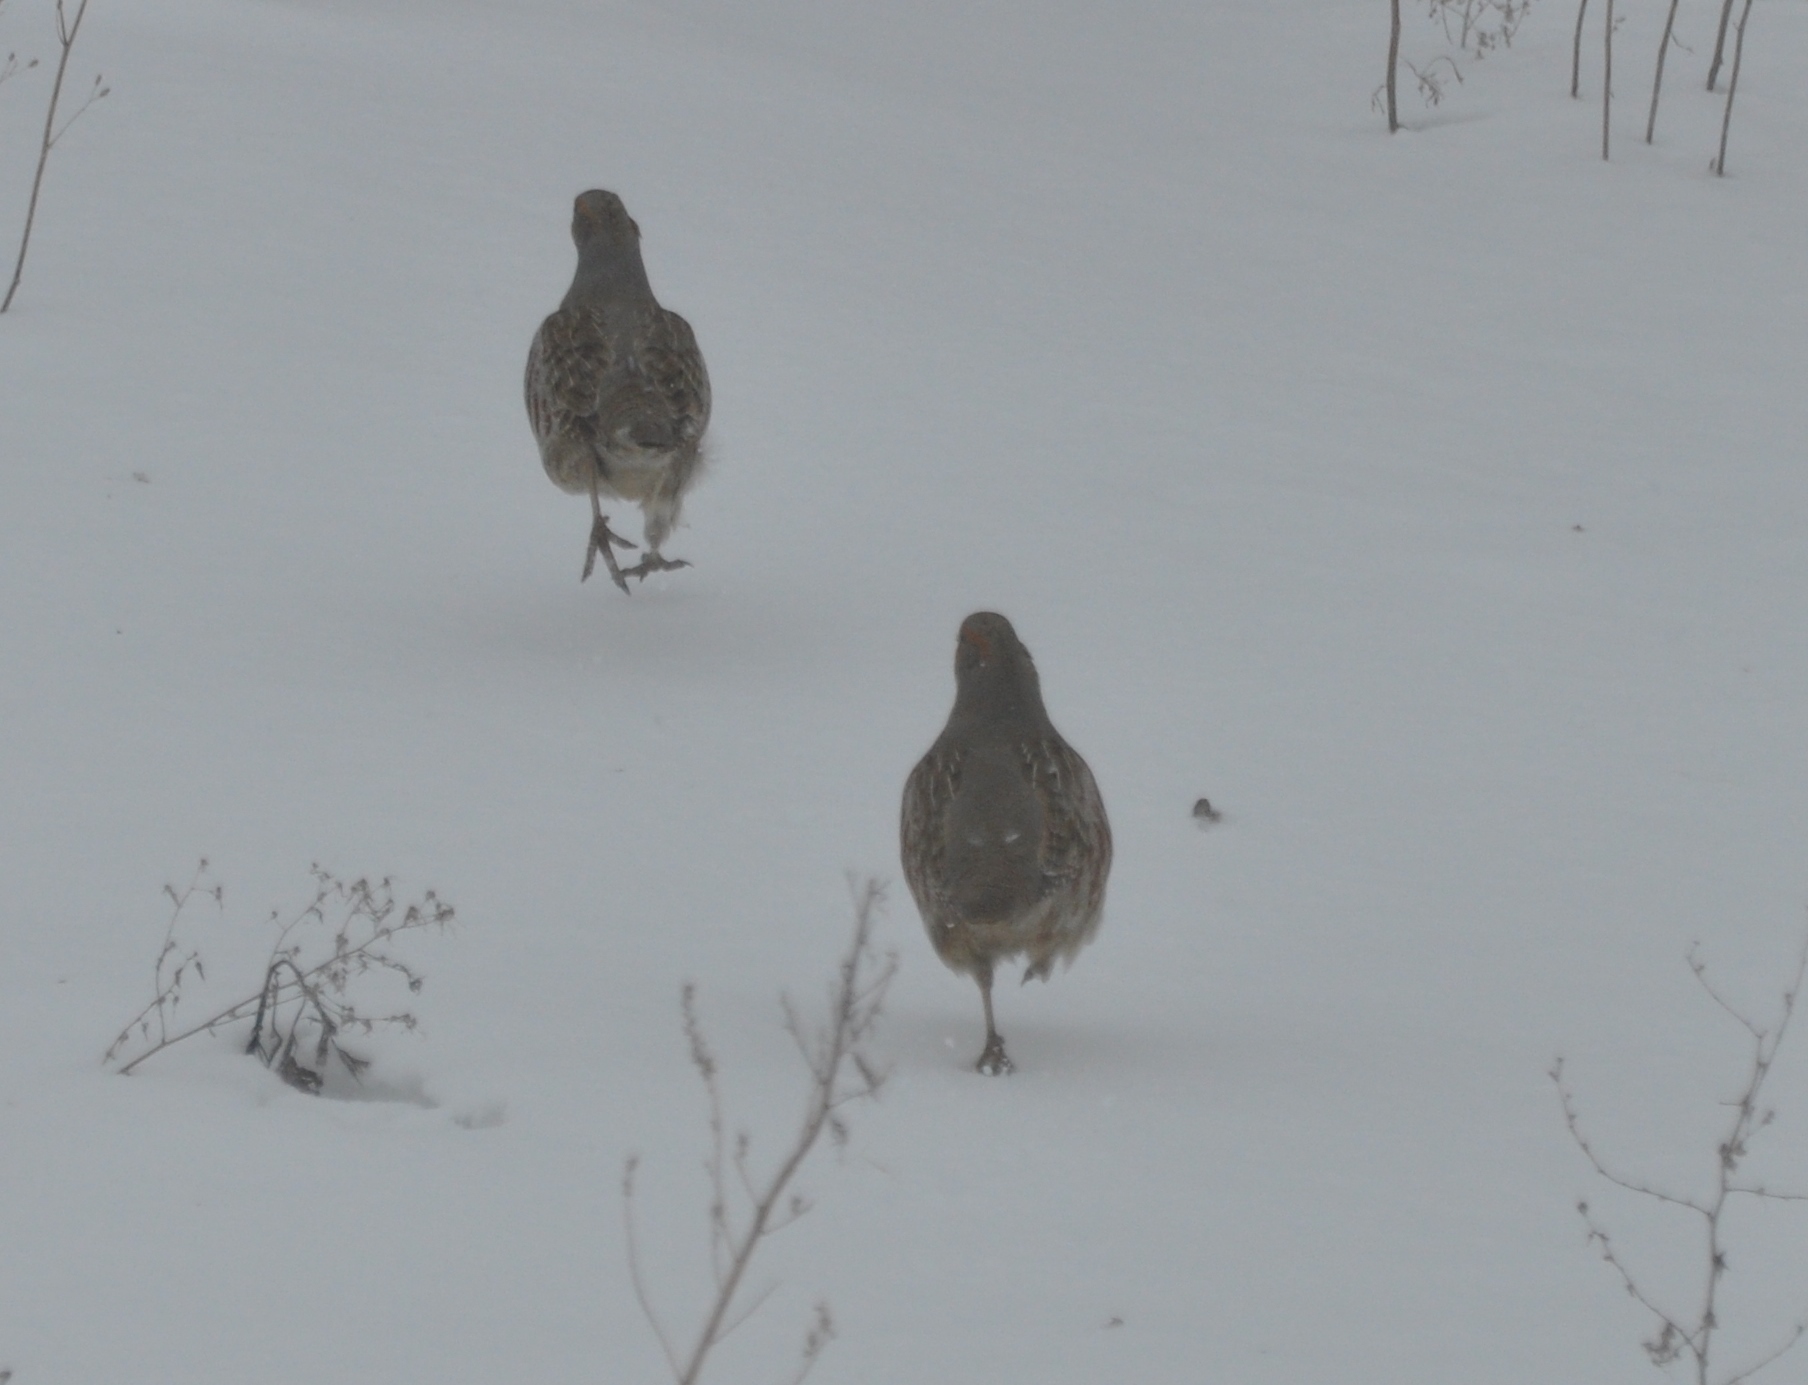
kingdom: Animalia
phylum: Chordata
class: Aves
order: Galliformes
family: Phasianidae
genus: Perdix
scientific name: Perdix perdix
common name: Grey partridge
